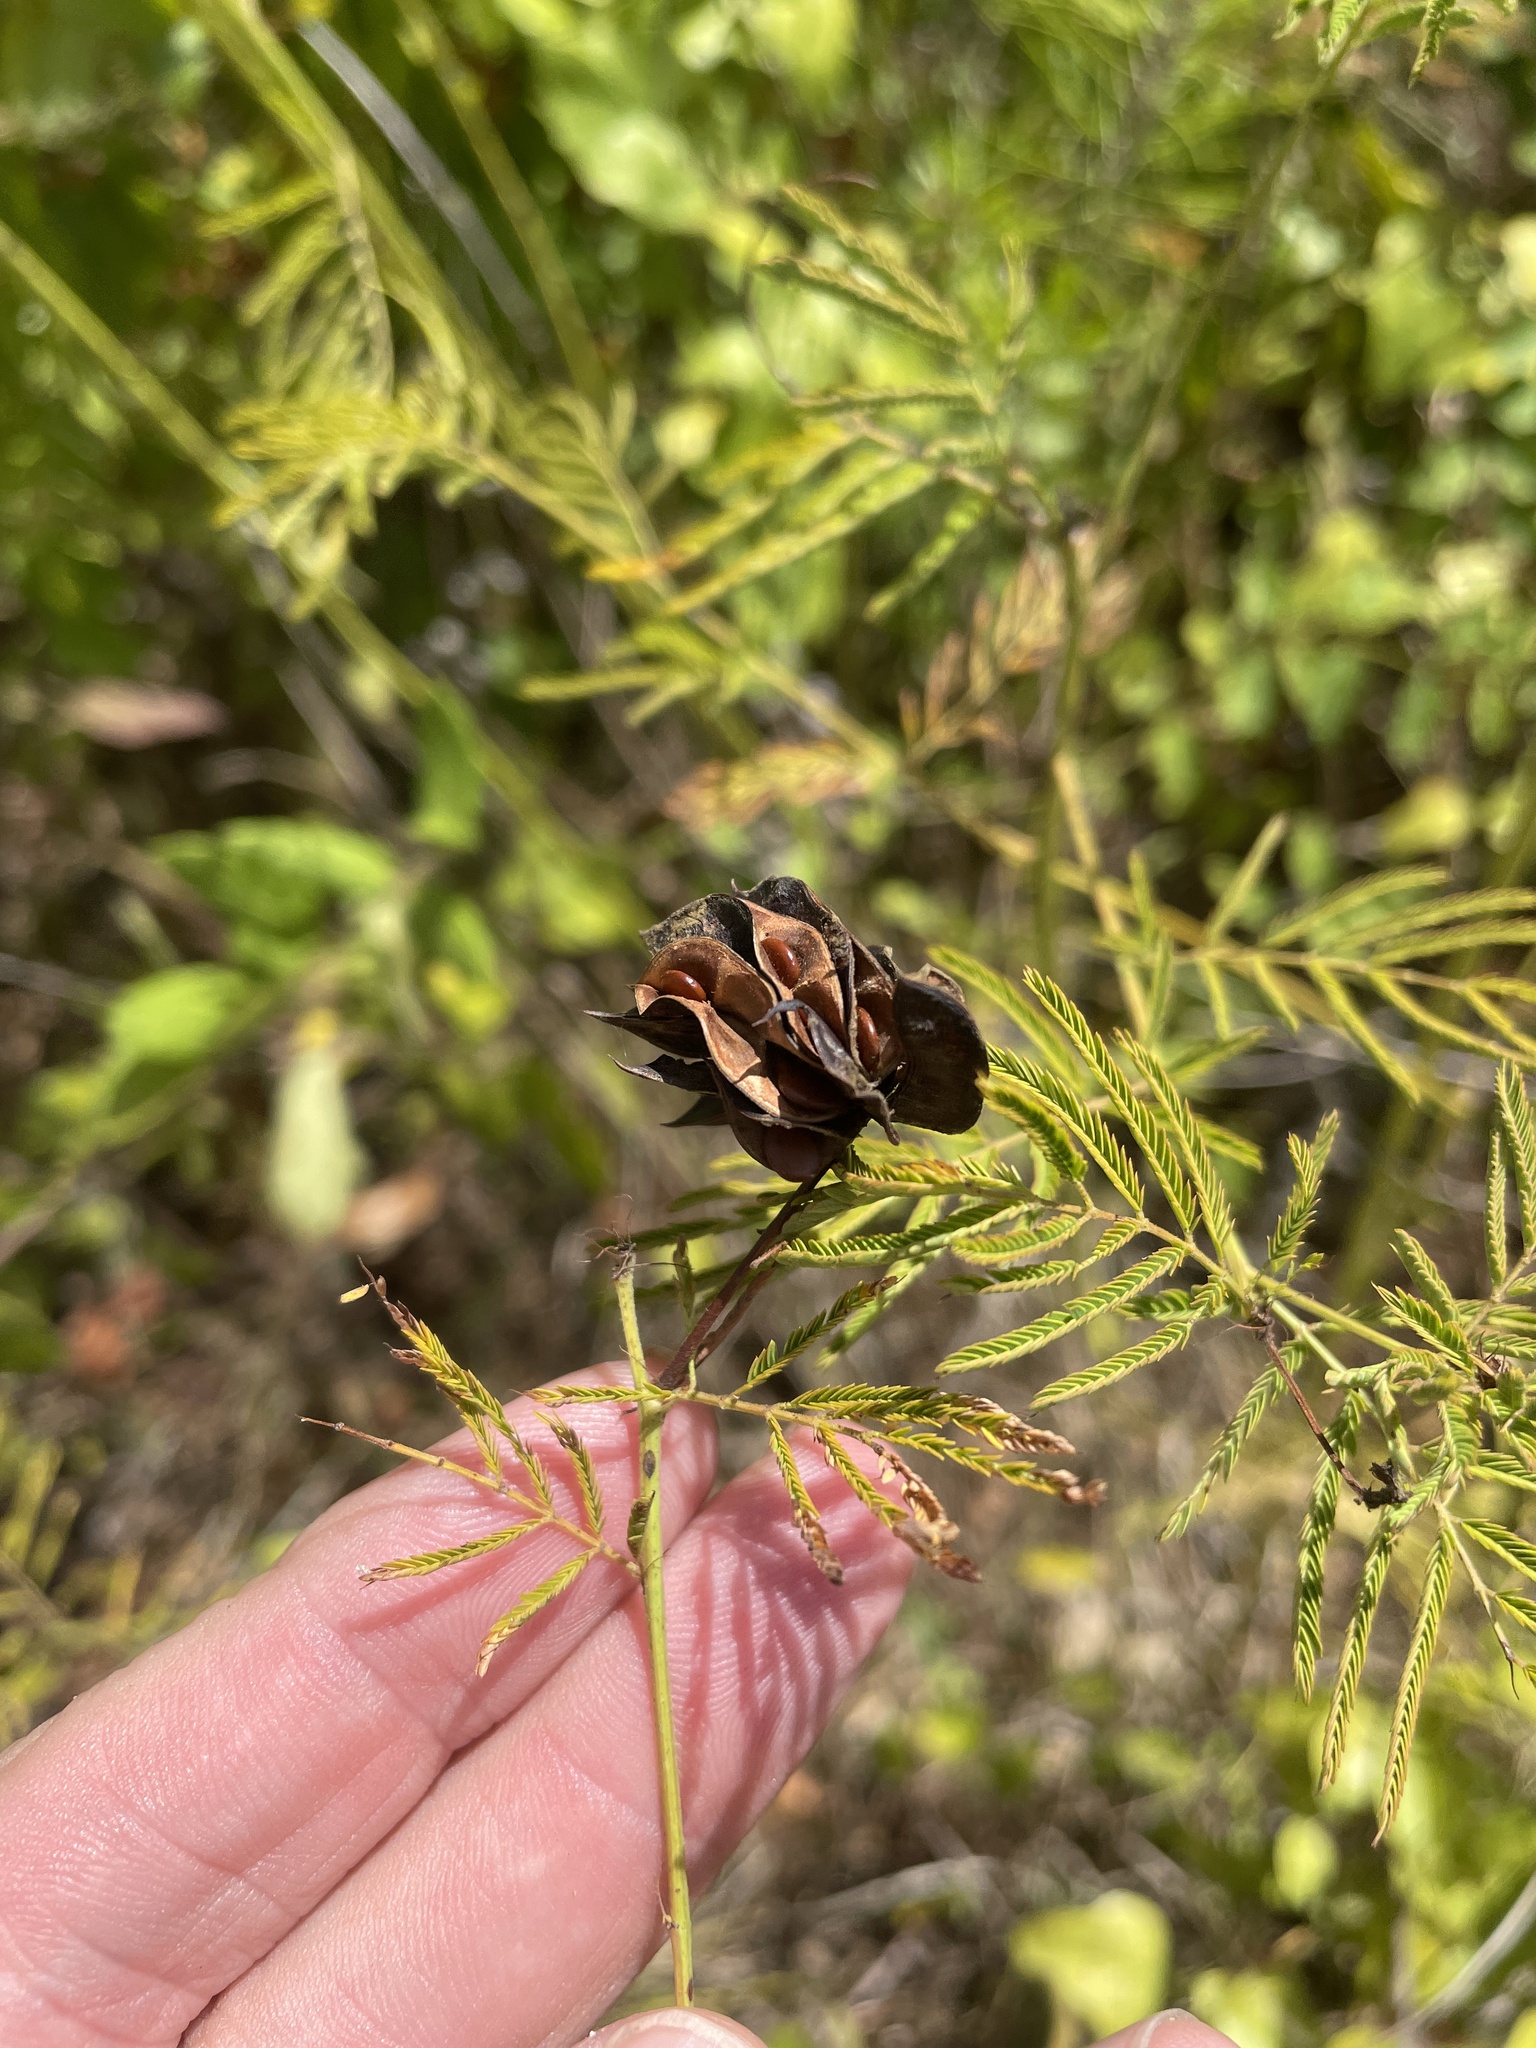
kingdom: Plantae
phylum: Tracheophyta
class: Magnoliopsida
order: Fabales
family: Fabaceae
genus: Desmanthus
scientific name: Desmanthus illinoensis
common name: Illinois bundle-flower
